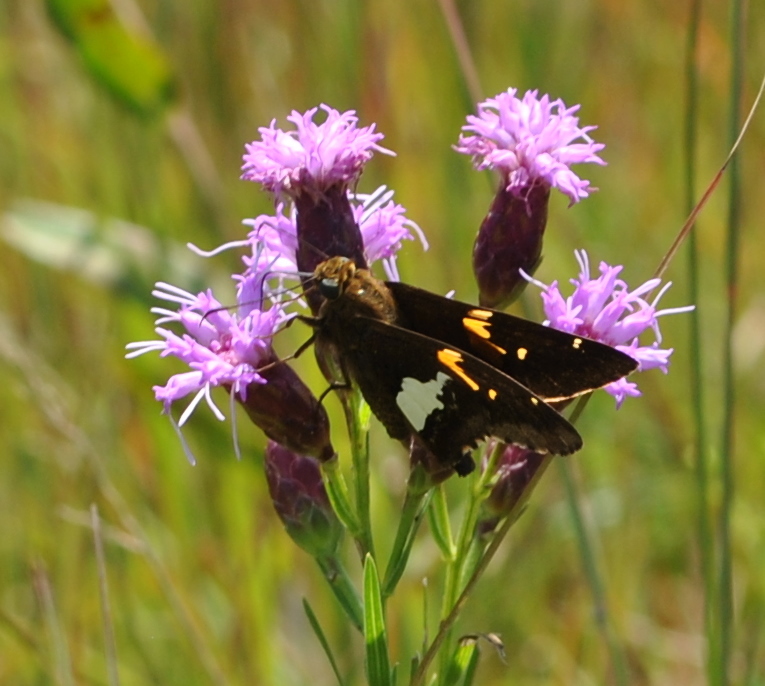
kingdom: Animalia
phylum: Arthropoda
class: Insecta
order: Lepidoptera
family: Hesperiidae
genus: Epargyreus
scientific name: Epargyreus clarus
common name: Silver-spotted skipper
